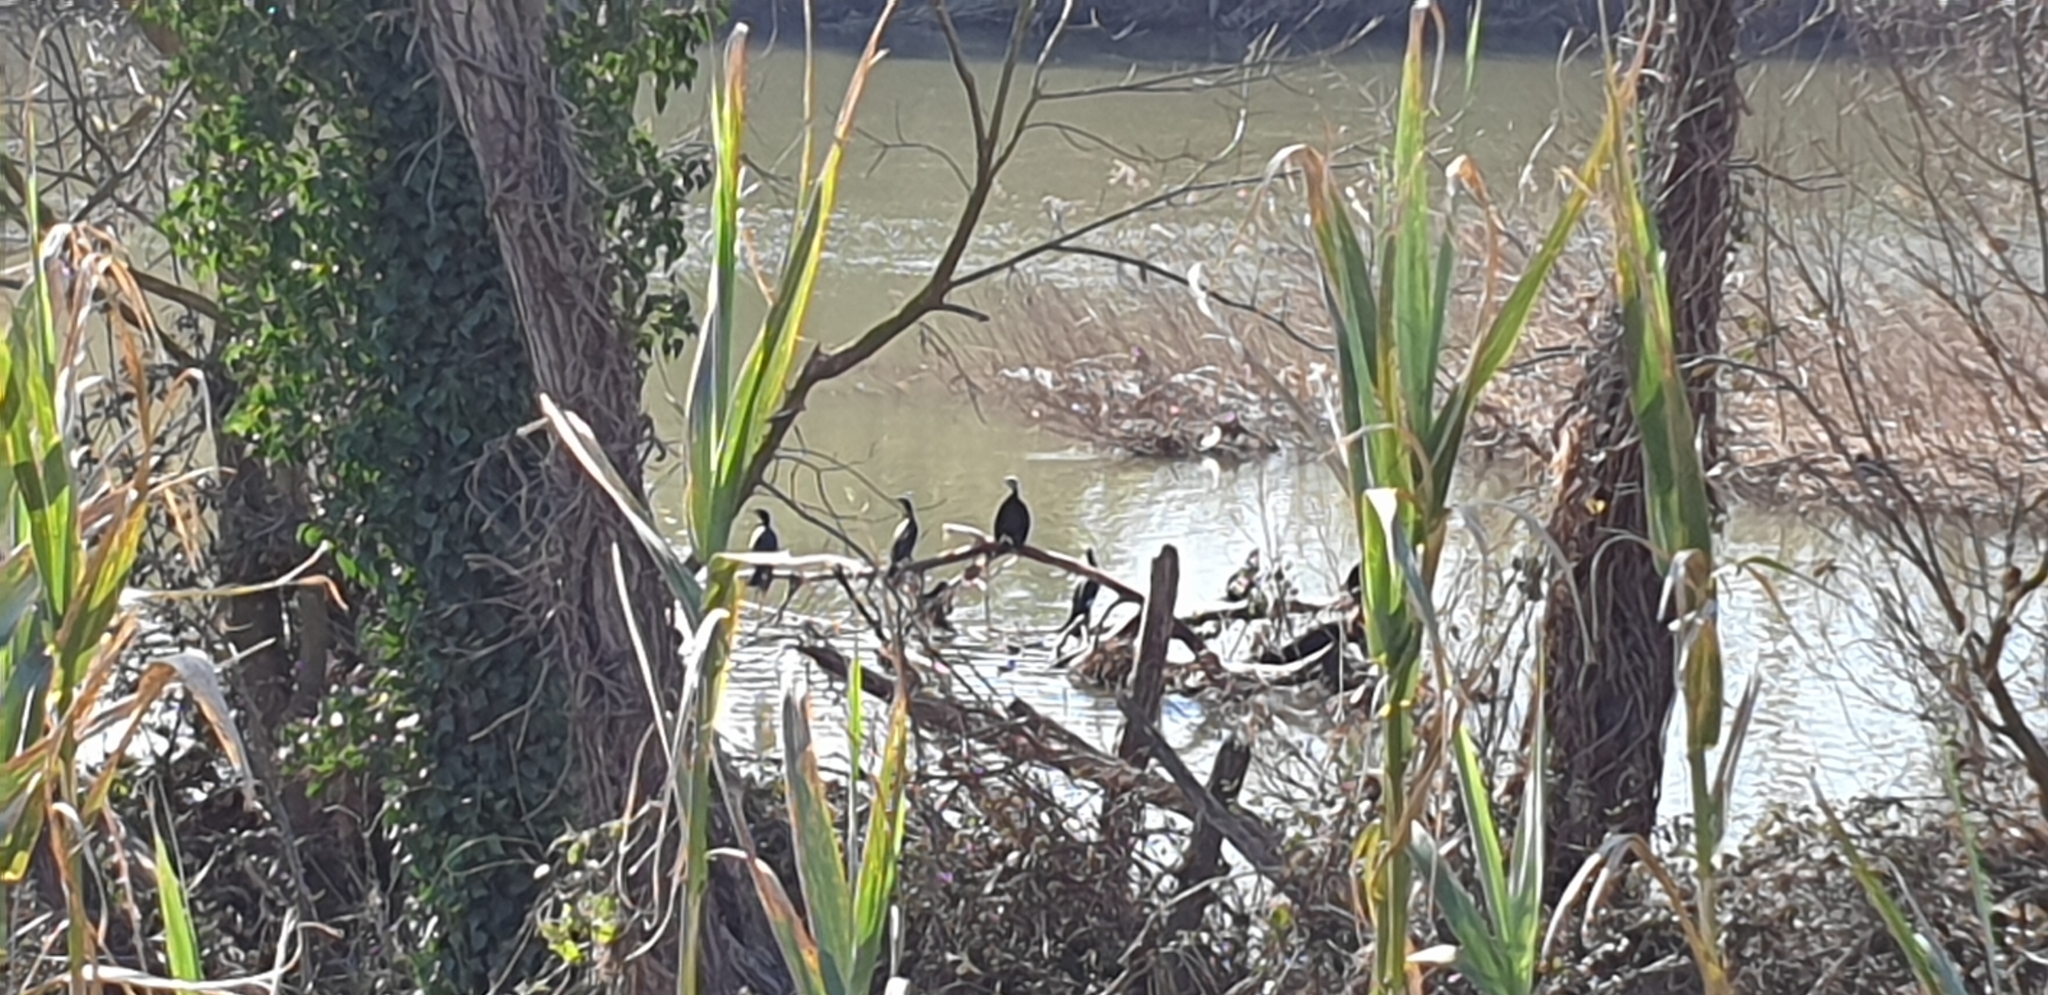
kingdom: Animalia
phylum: Chordata
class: Aves
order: Suliformes
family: Phalacrocoracidae
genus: Phalacrocorax
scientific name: Phalacrocorax carbo
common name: Great cormorant
